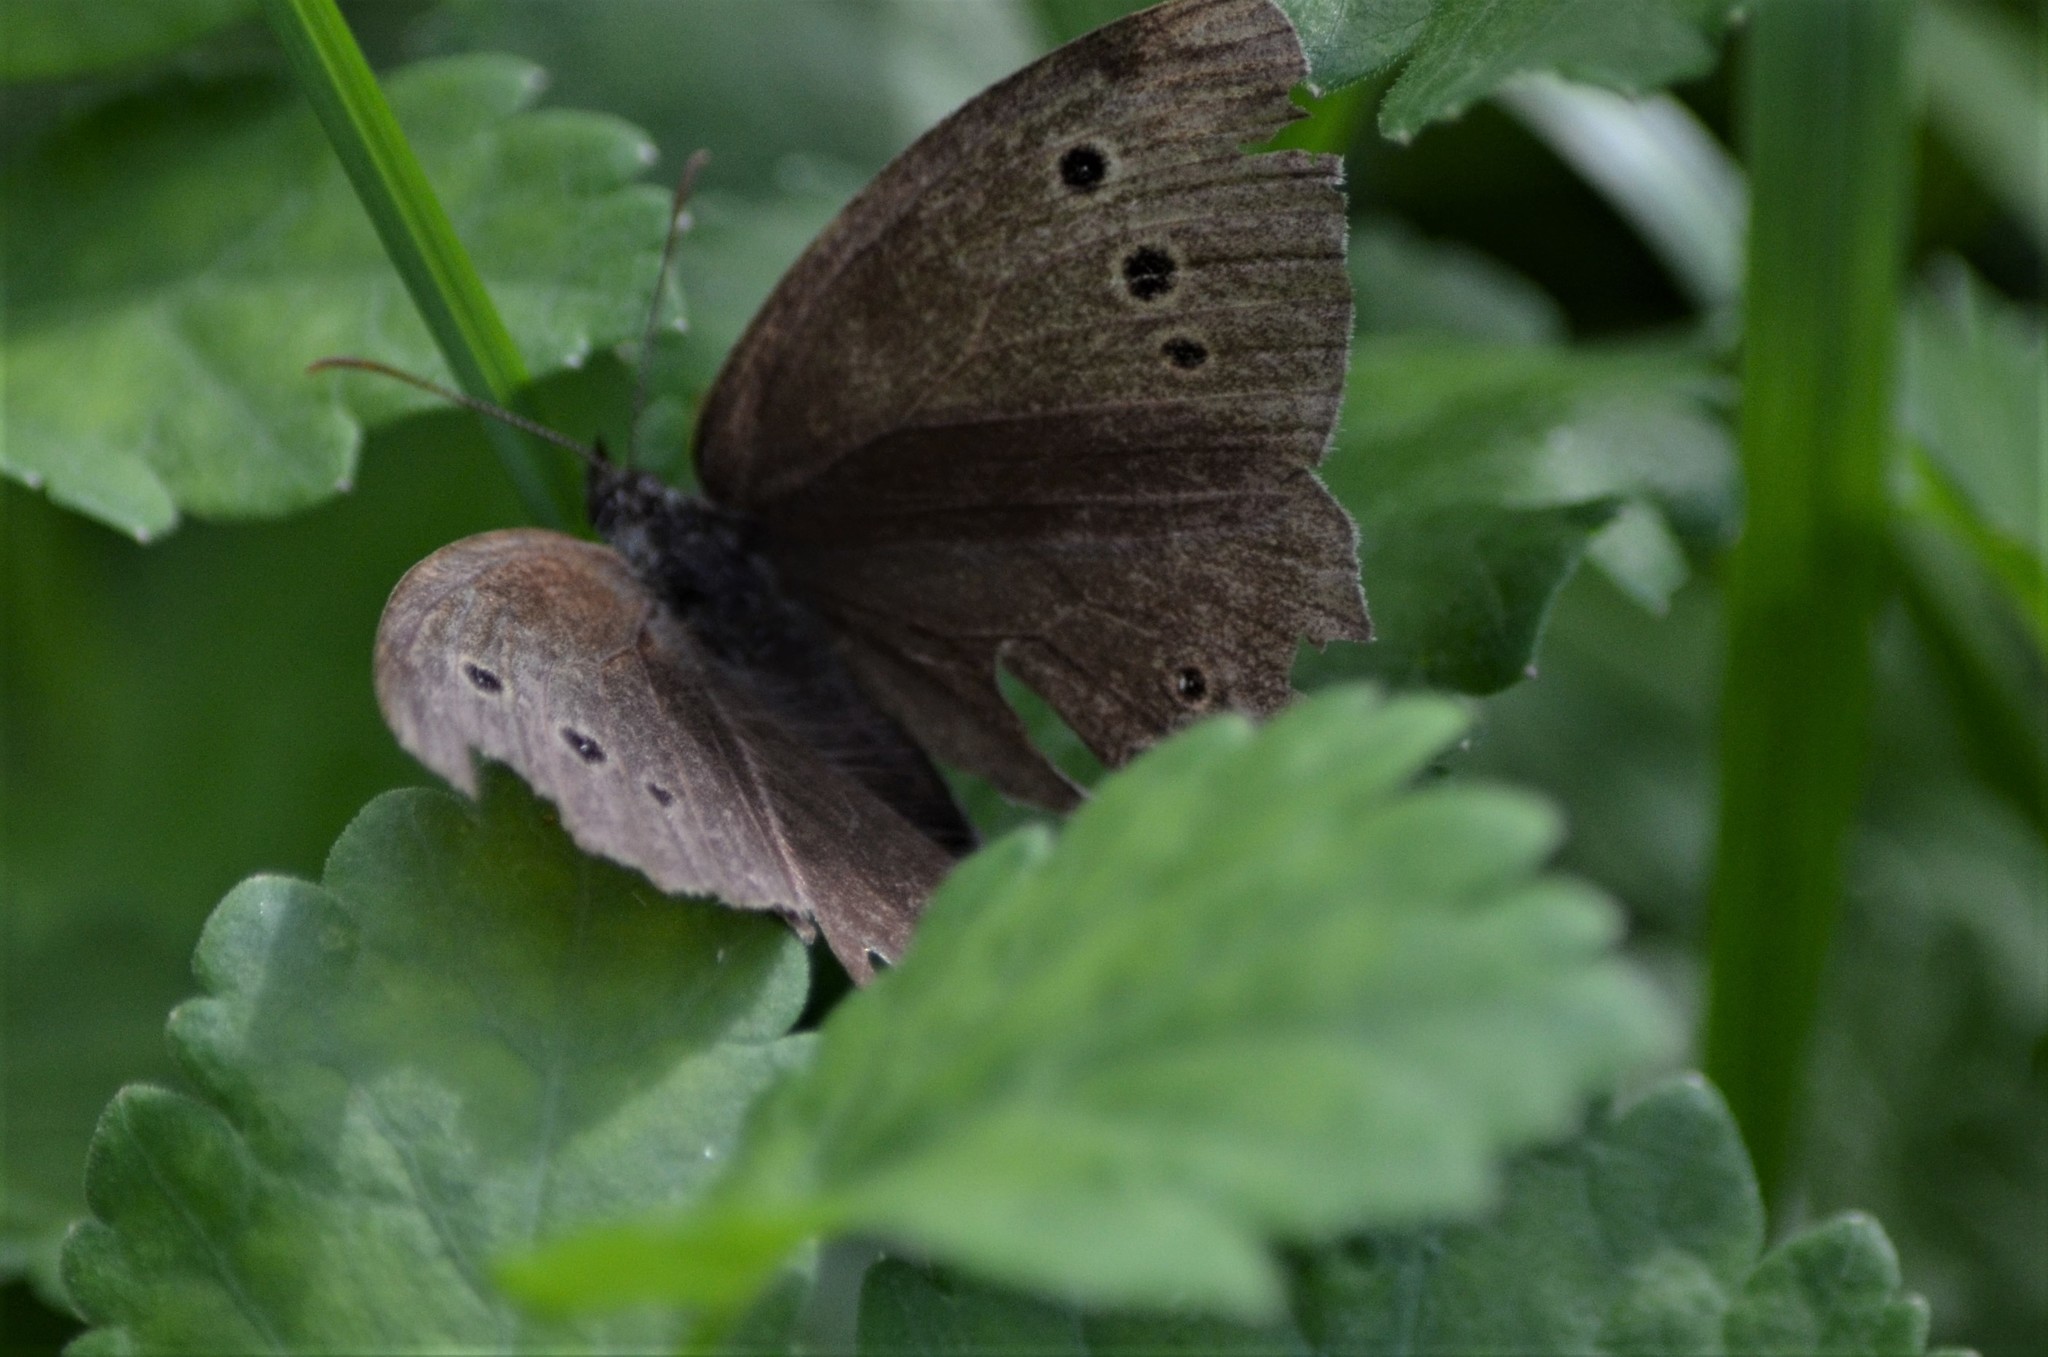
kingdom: Animalia
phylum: Arthropoda
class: Insecta
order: Lepidoptera
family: Nymphalidae
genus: Aphantopus
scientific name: Aphantopus hyperantus
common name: Ringlet
